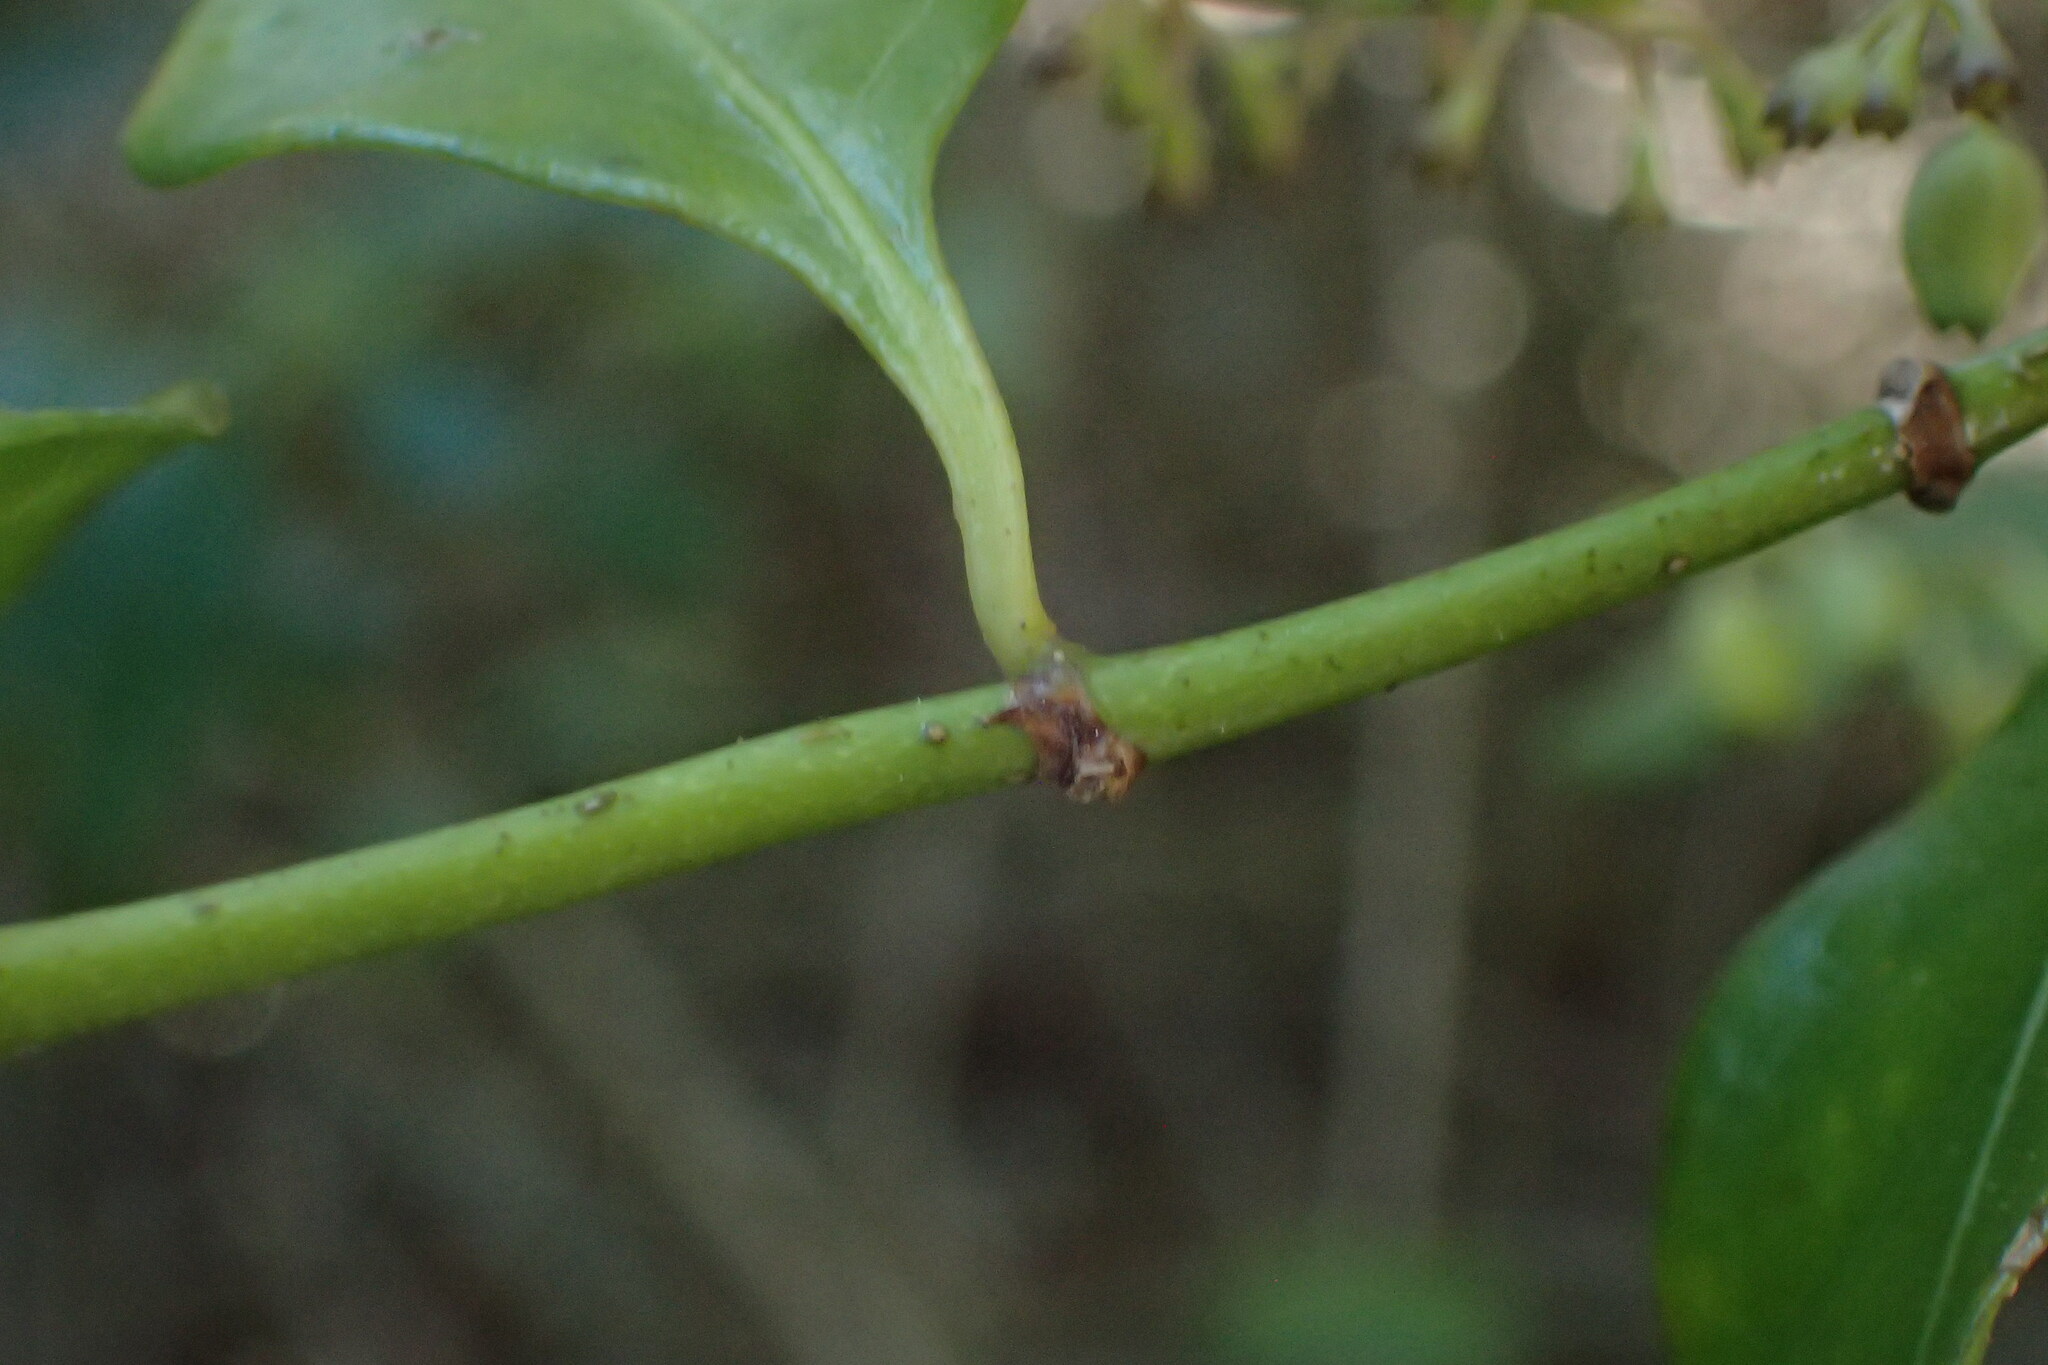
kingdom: Plantae
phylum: Tracheophyta
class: Magnoliopsida
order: Gentianales
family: Rubiaceae
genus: Chiococca
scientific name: Chiococca alba
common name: Snowberry
